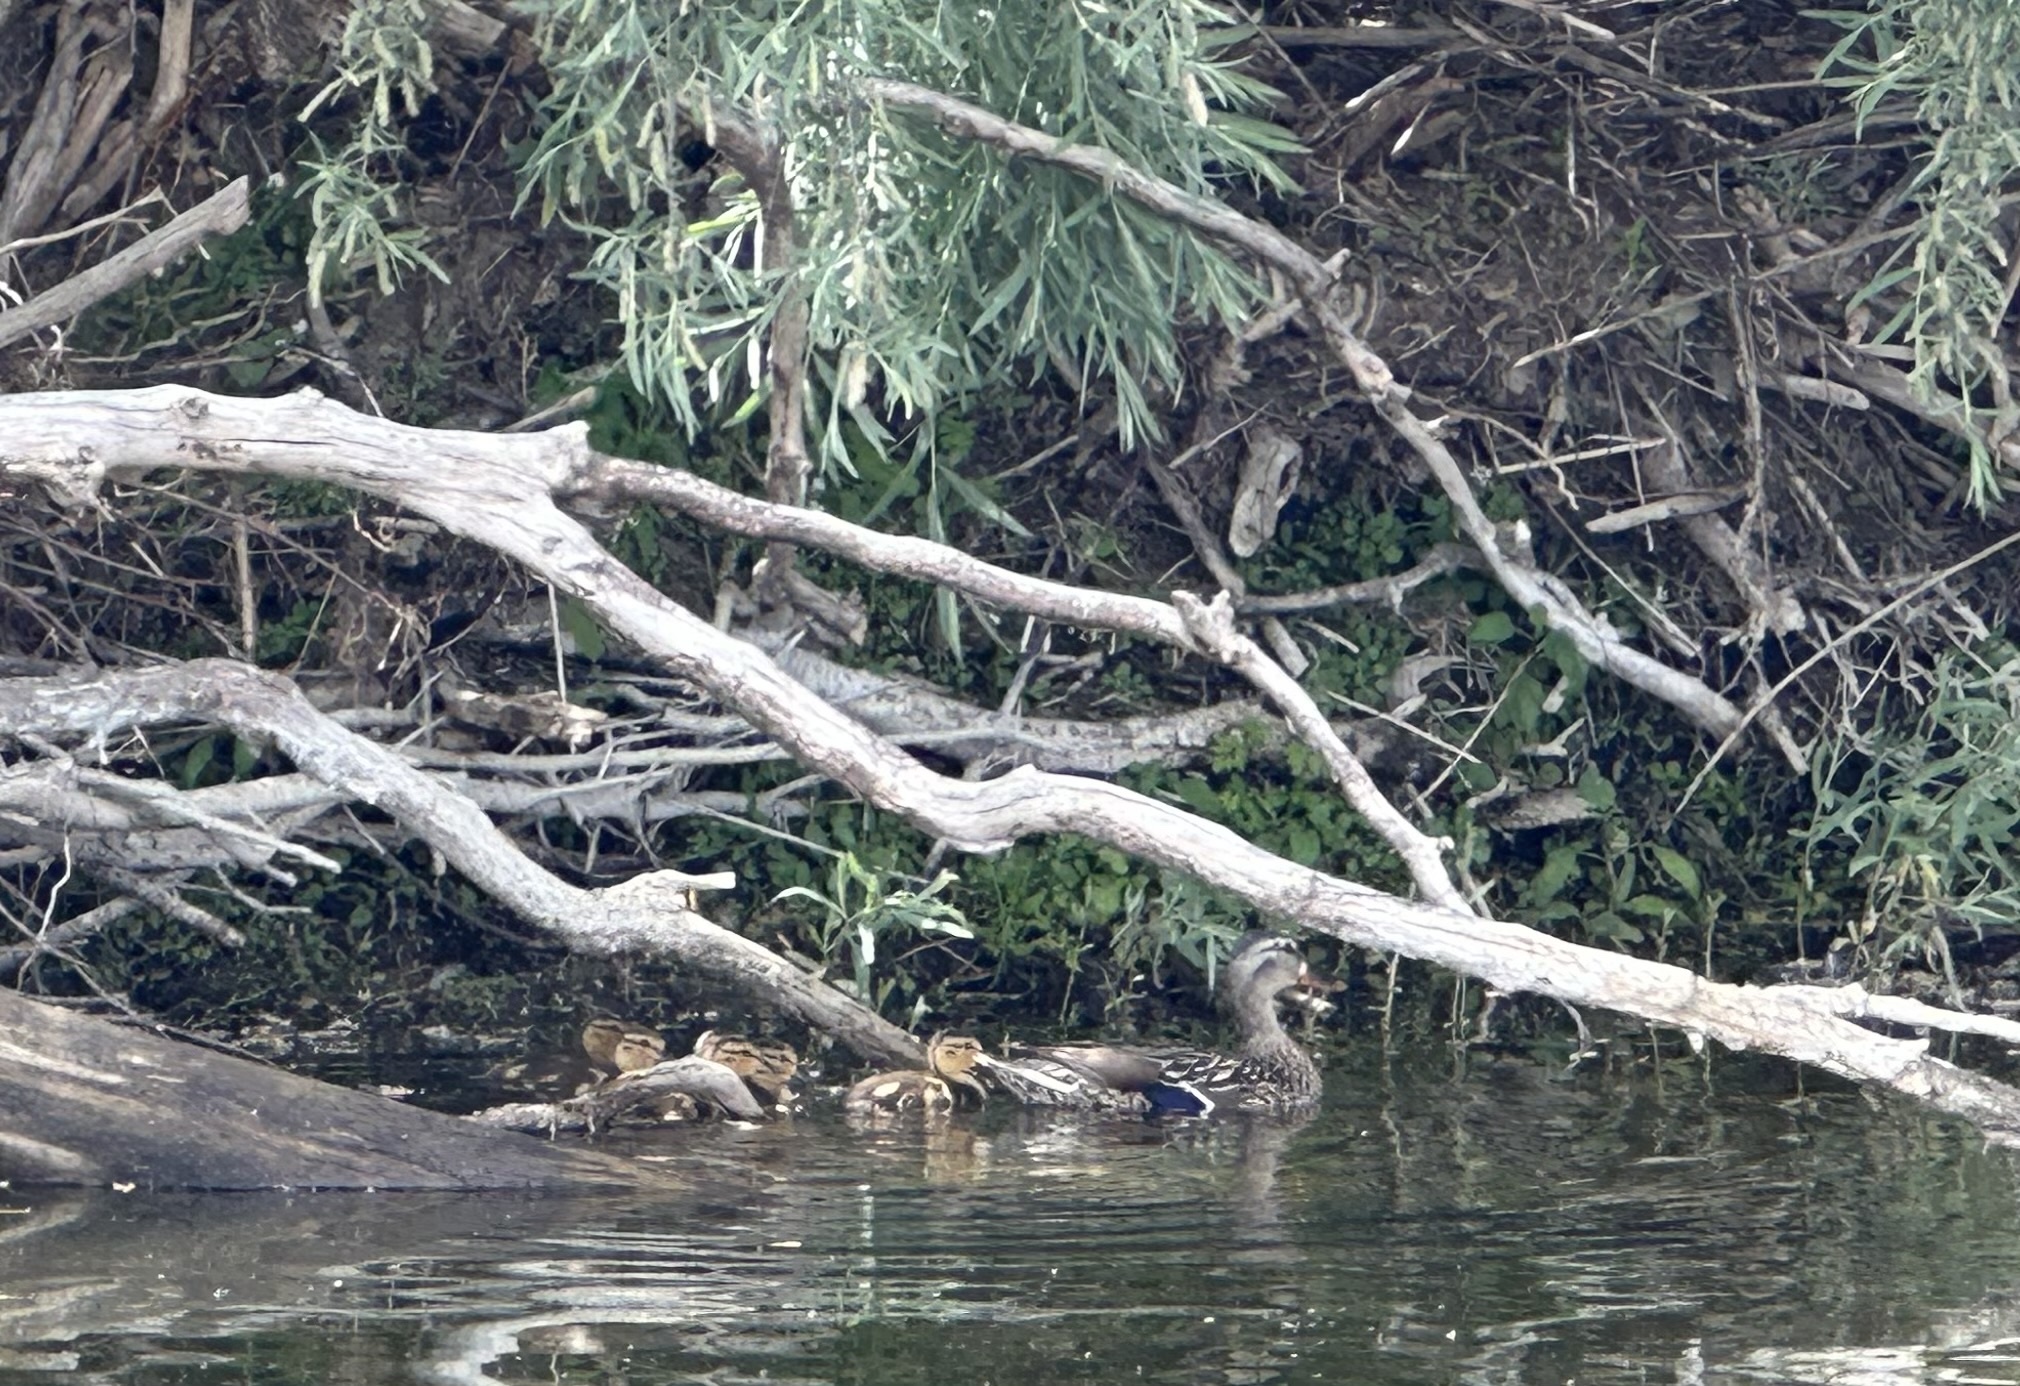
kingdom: Animalia
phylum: Chordata
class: Aves
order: Anseriformes
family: Anatidae
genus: Anas
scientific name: Anas platyrhynchos
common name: Mallard
